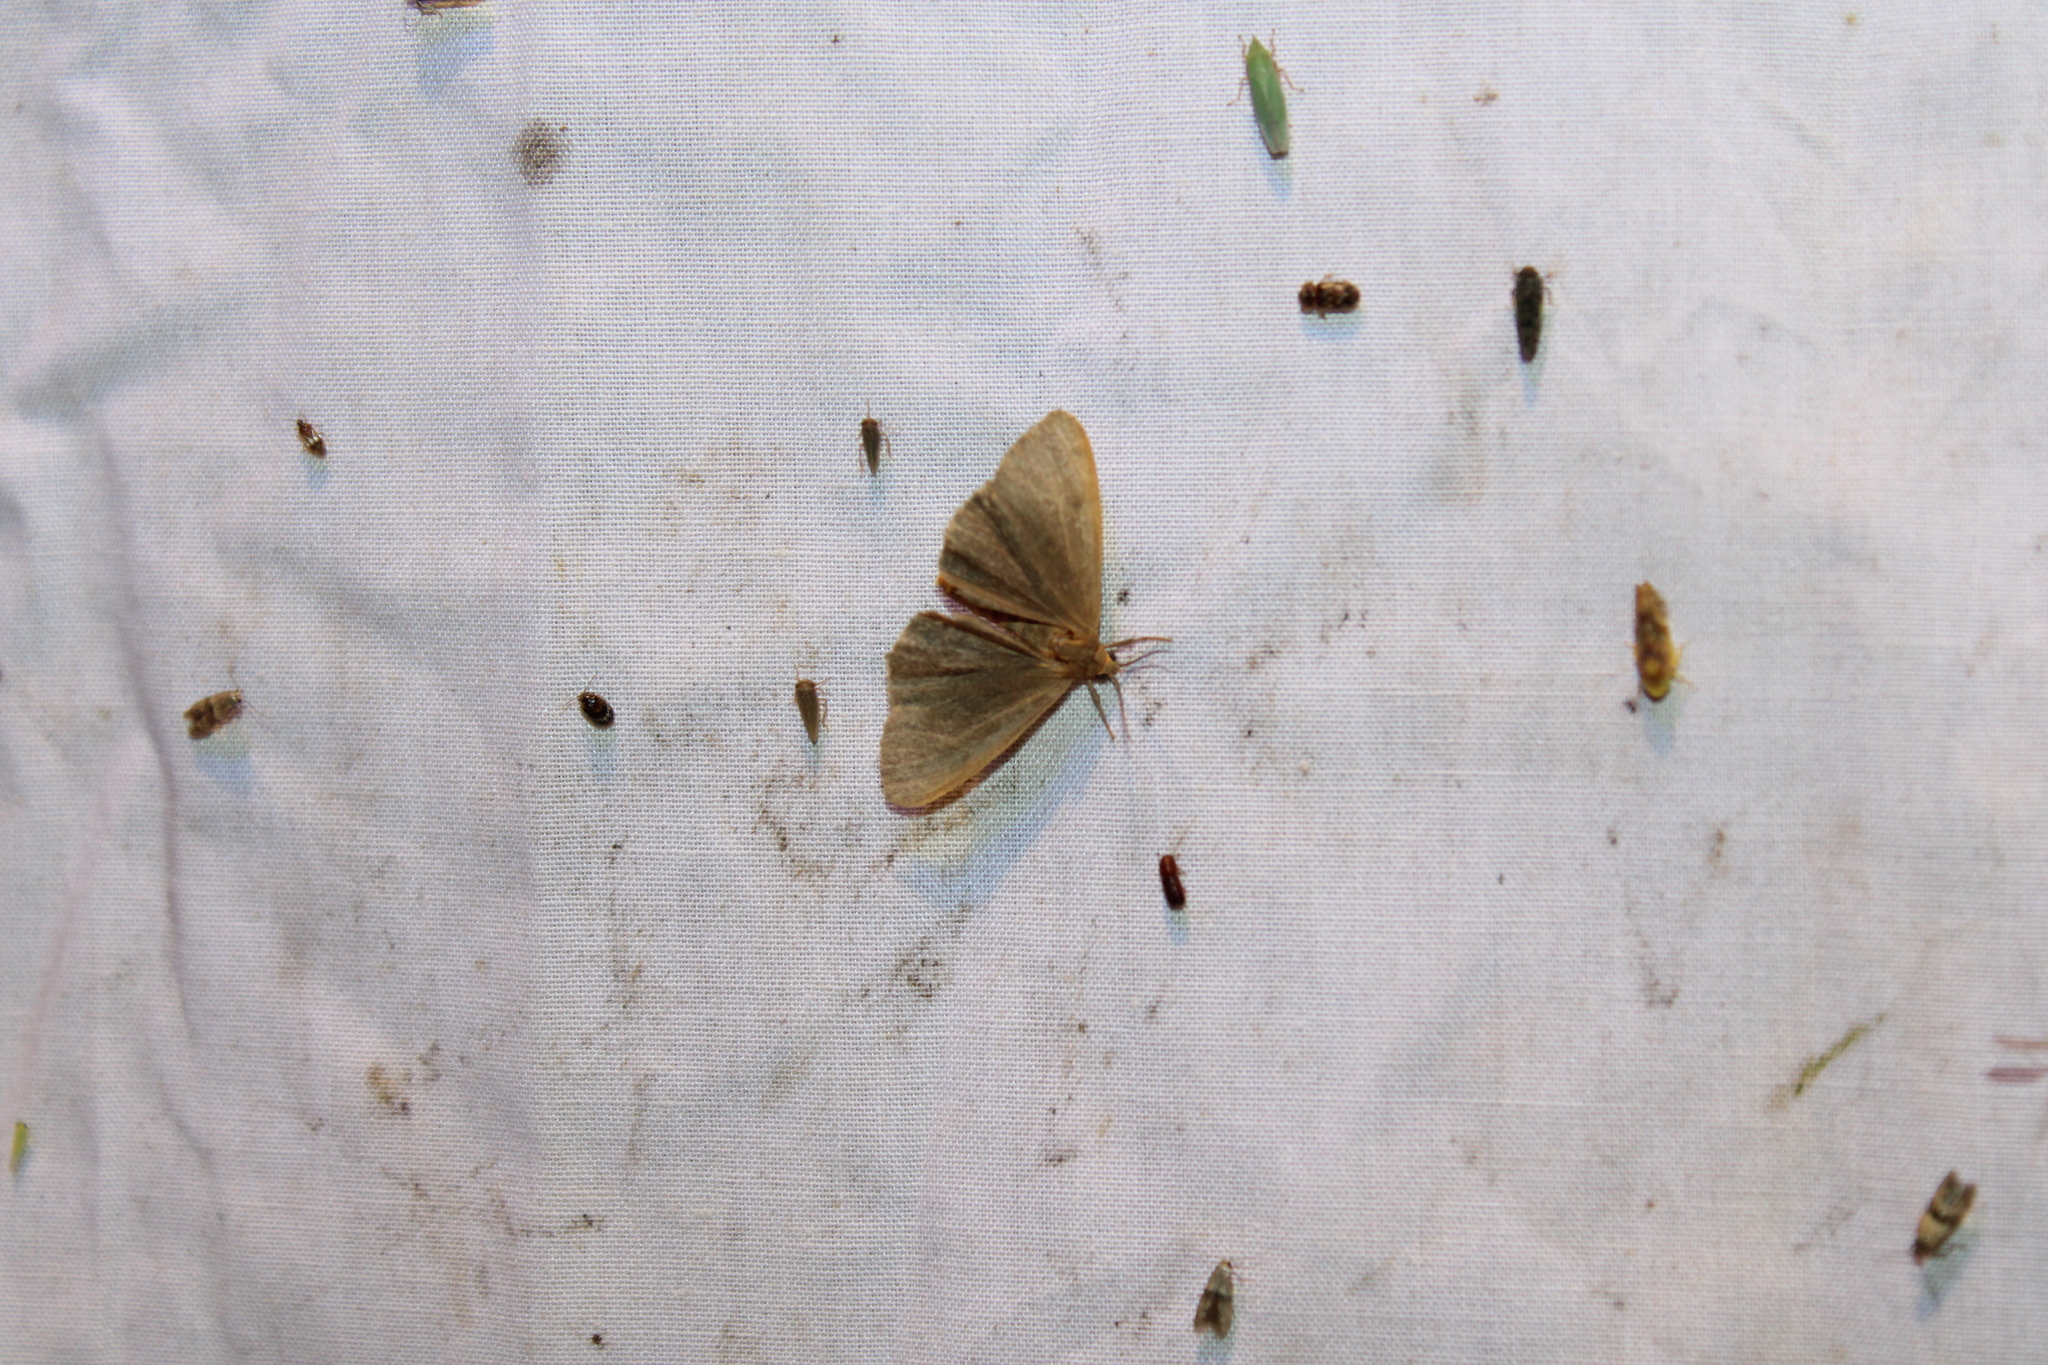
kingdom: Animalia
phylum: Arthropoda
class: Insecta
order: Lepidoptera
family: Erebidae
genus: Virbia
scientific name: Virbia opella
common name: Tawny virbia moth
